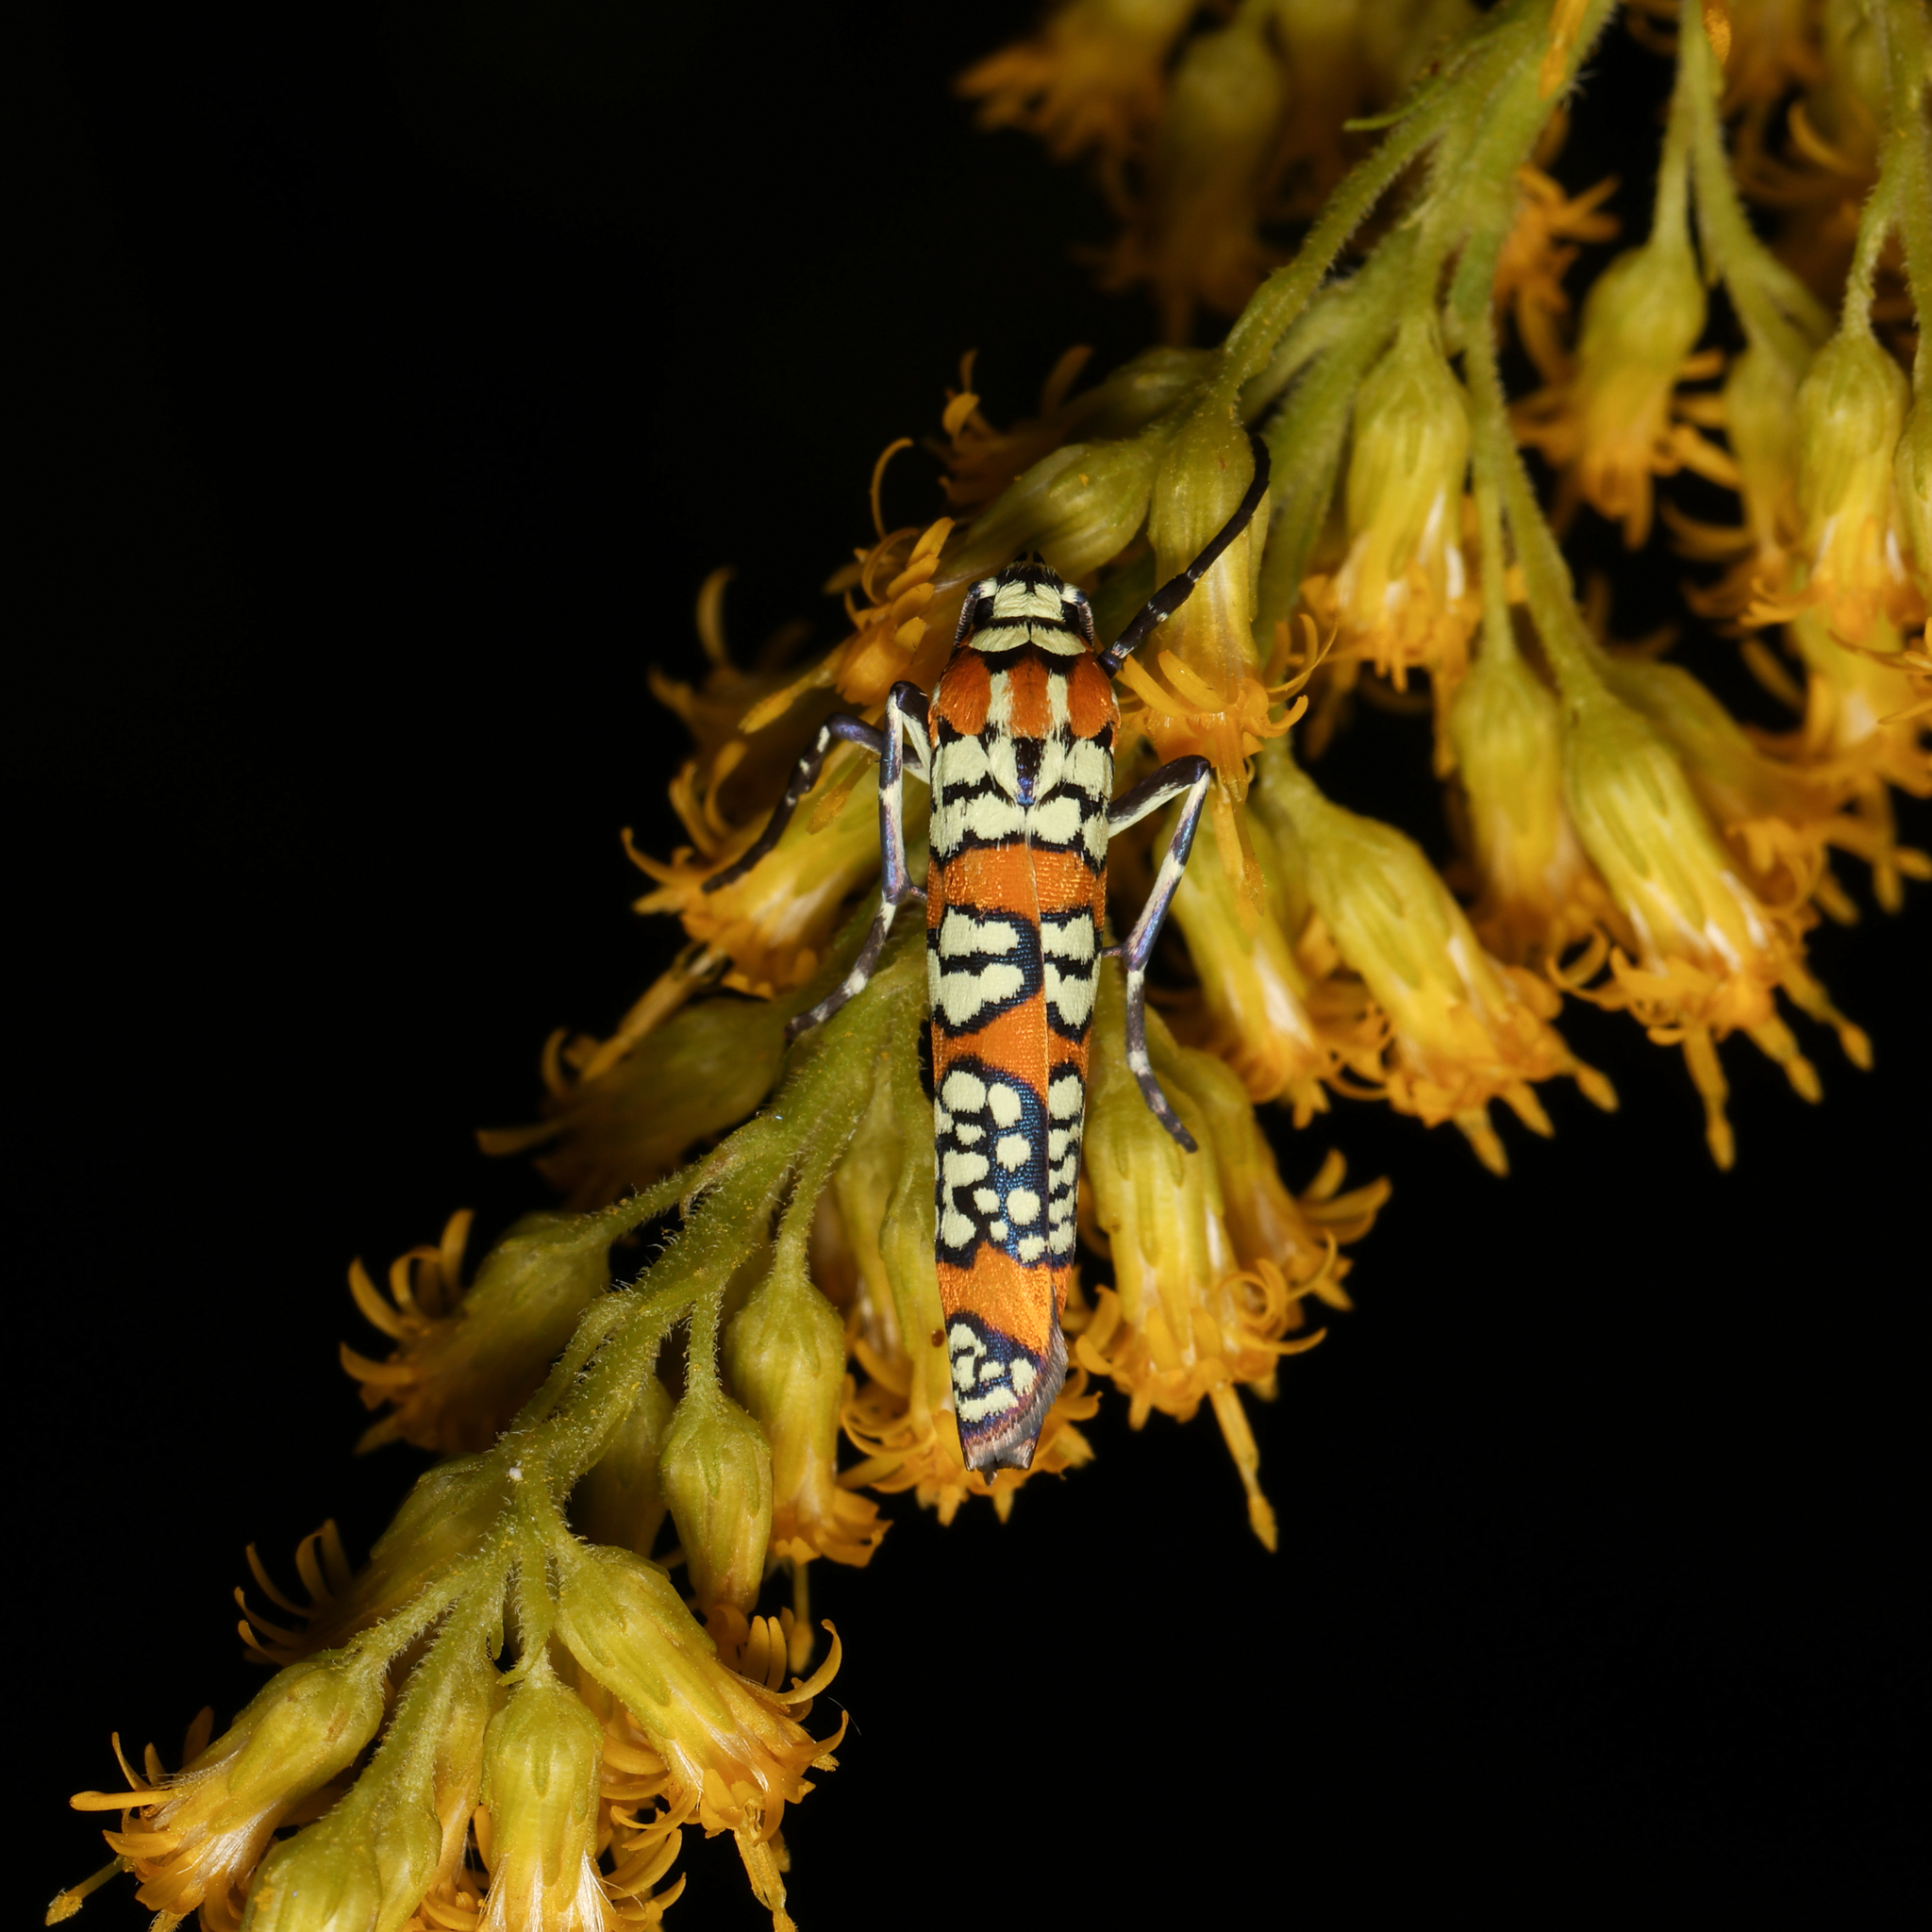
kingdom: Animalia
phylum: Arthropoda
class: Insecta
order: Lepidoptera
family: Attevidae
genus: Atteva
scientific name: Atteva punctella
